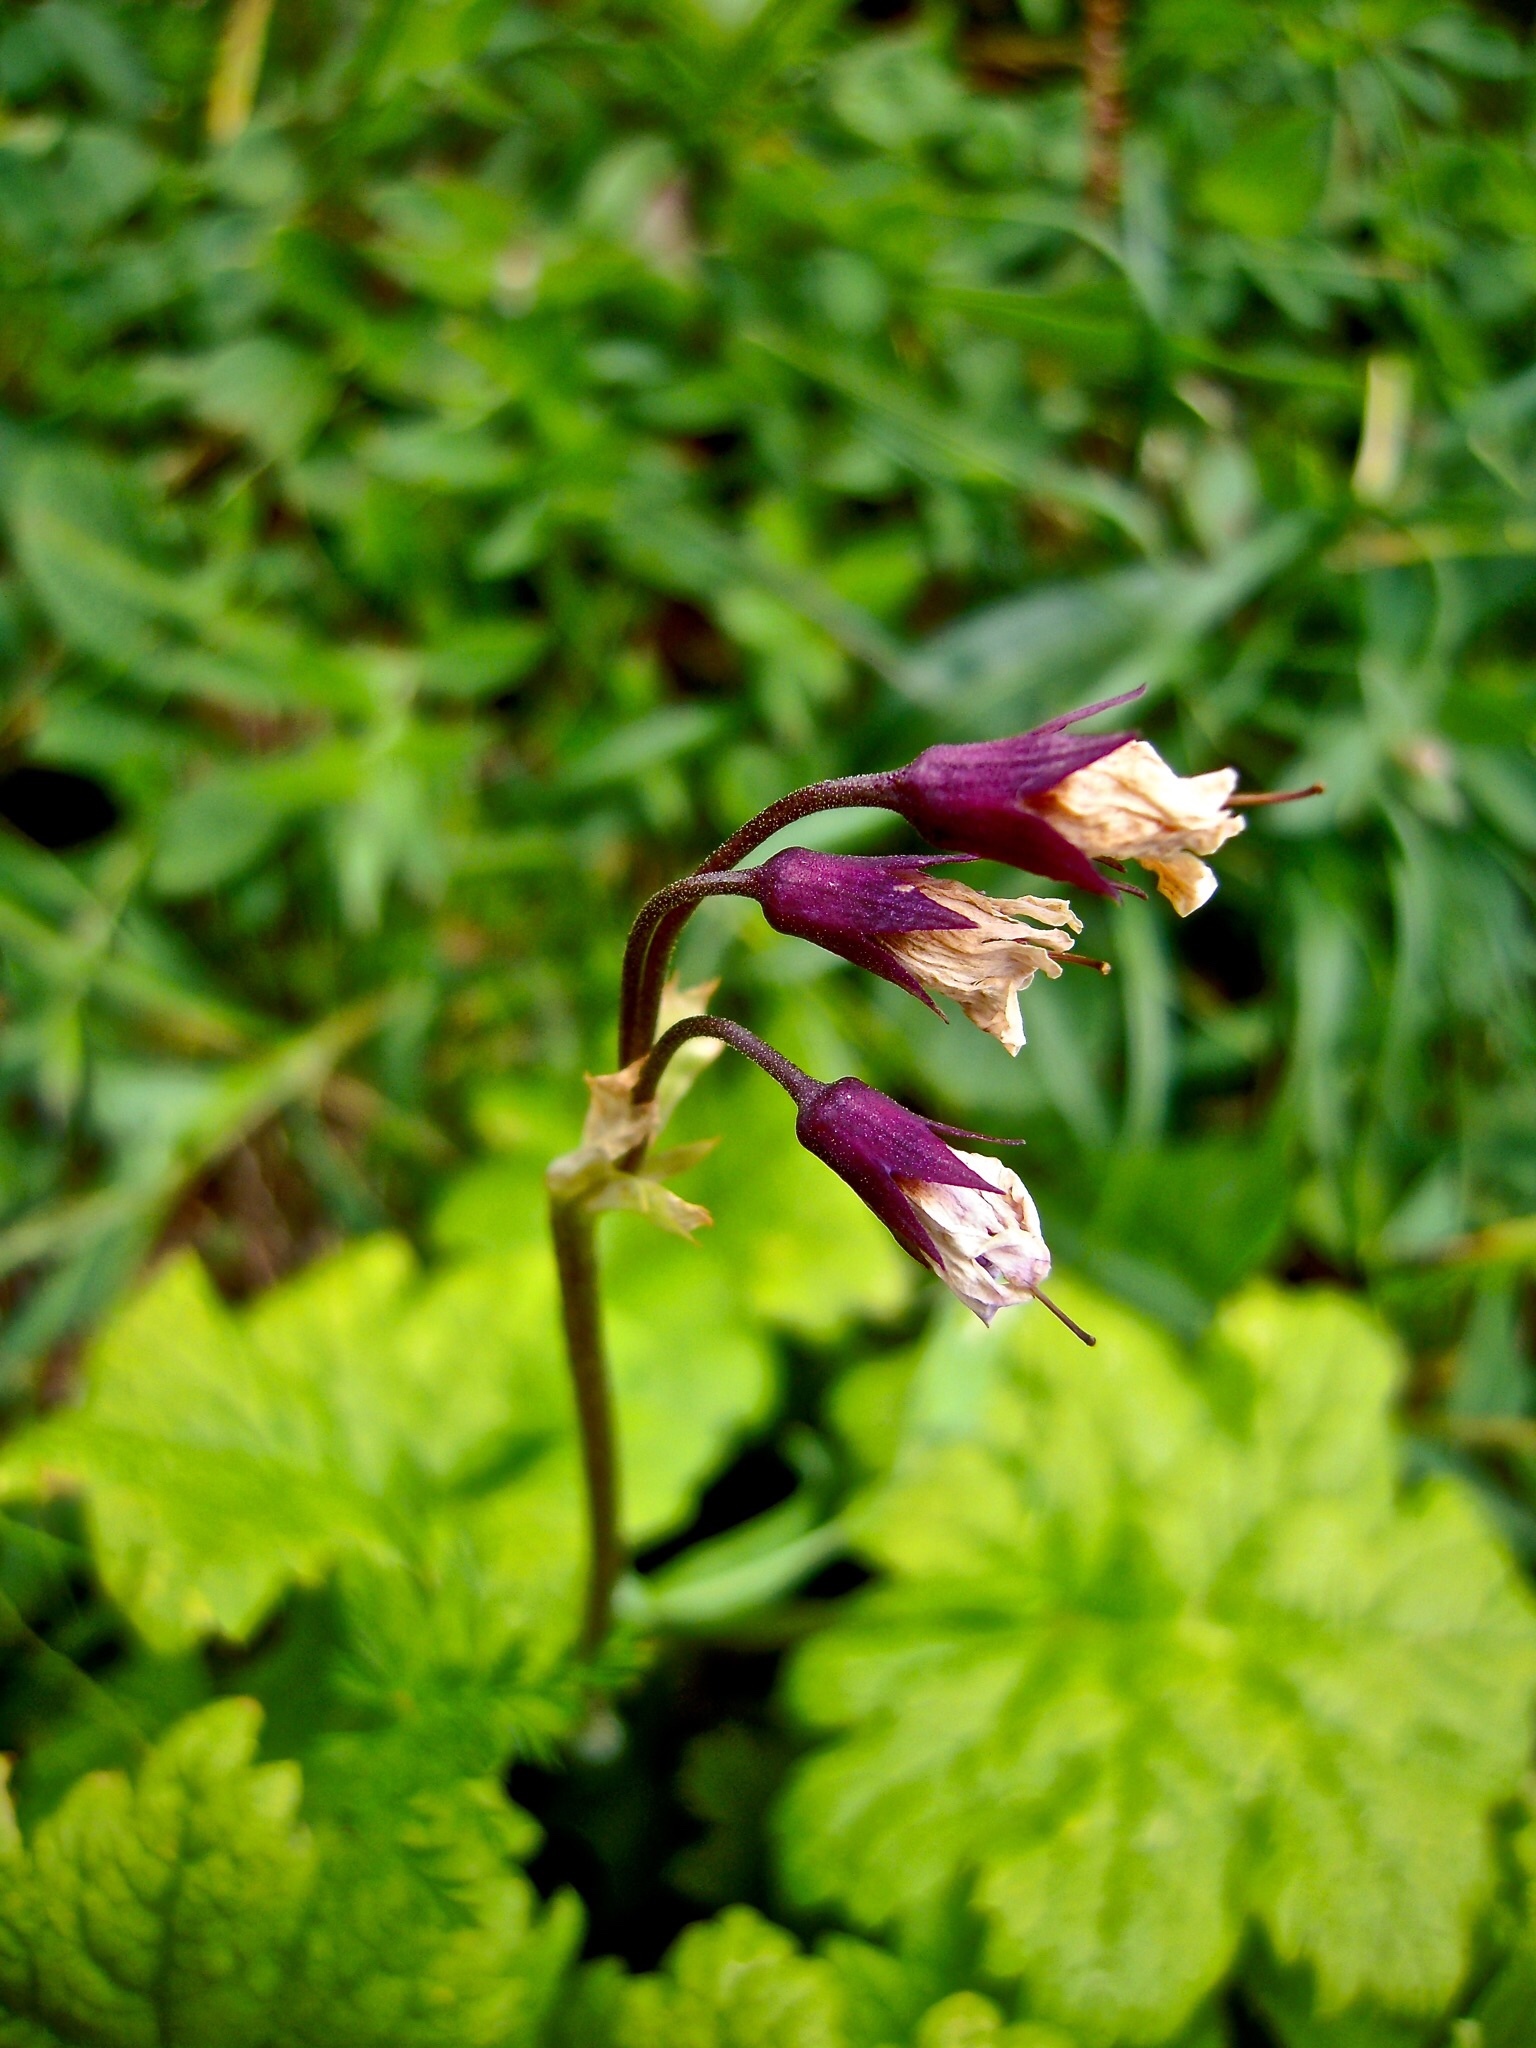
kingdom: Plantae
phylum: Tracheophyta
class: Magnoliopsida
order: Ericales
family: Primulaceae
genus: Primula
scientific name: Primula matthioli
